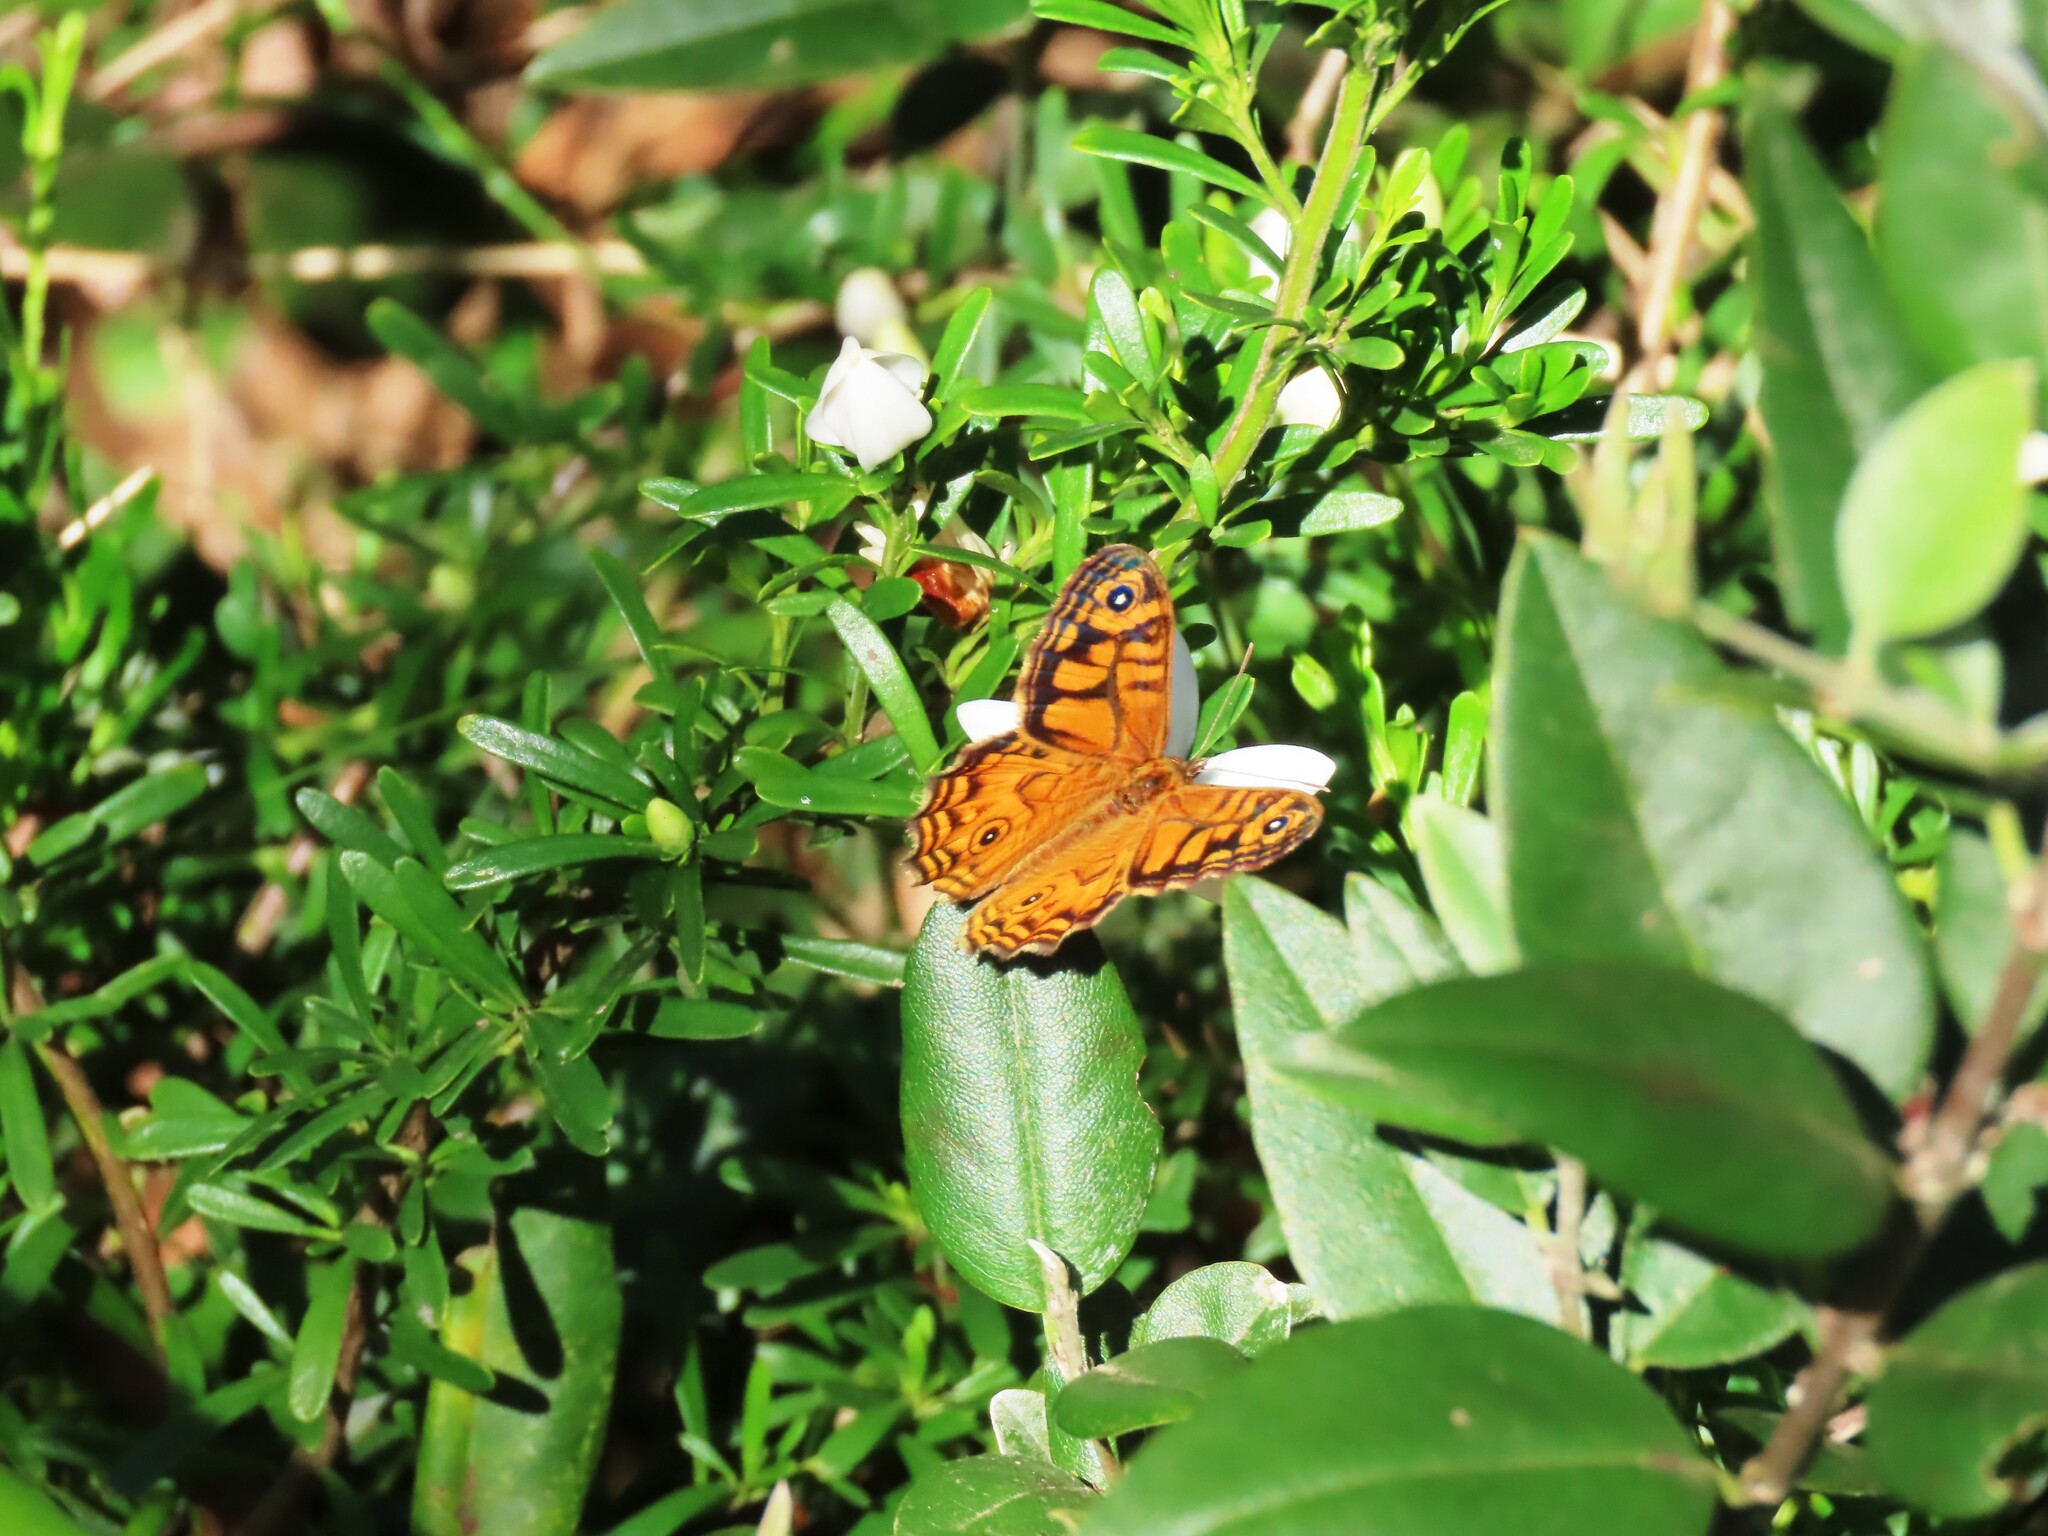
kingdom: Animalia
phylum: Arthropoda
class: Insecta
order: Lepidoptera
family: Nymphalidae
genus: Geitoneura
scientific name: Geitoneura acantha
